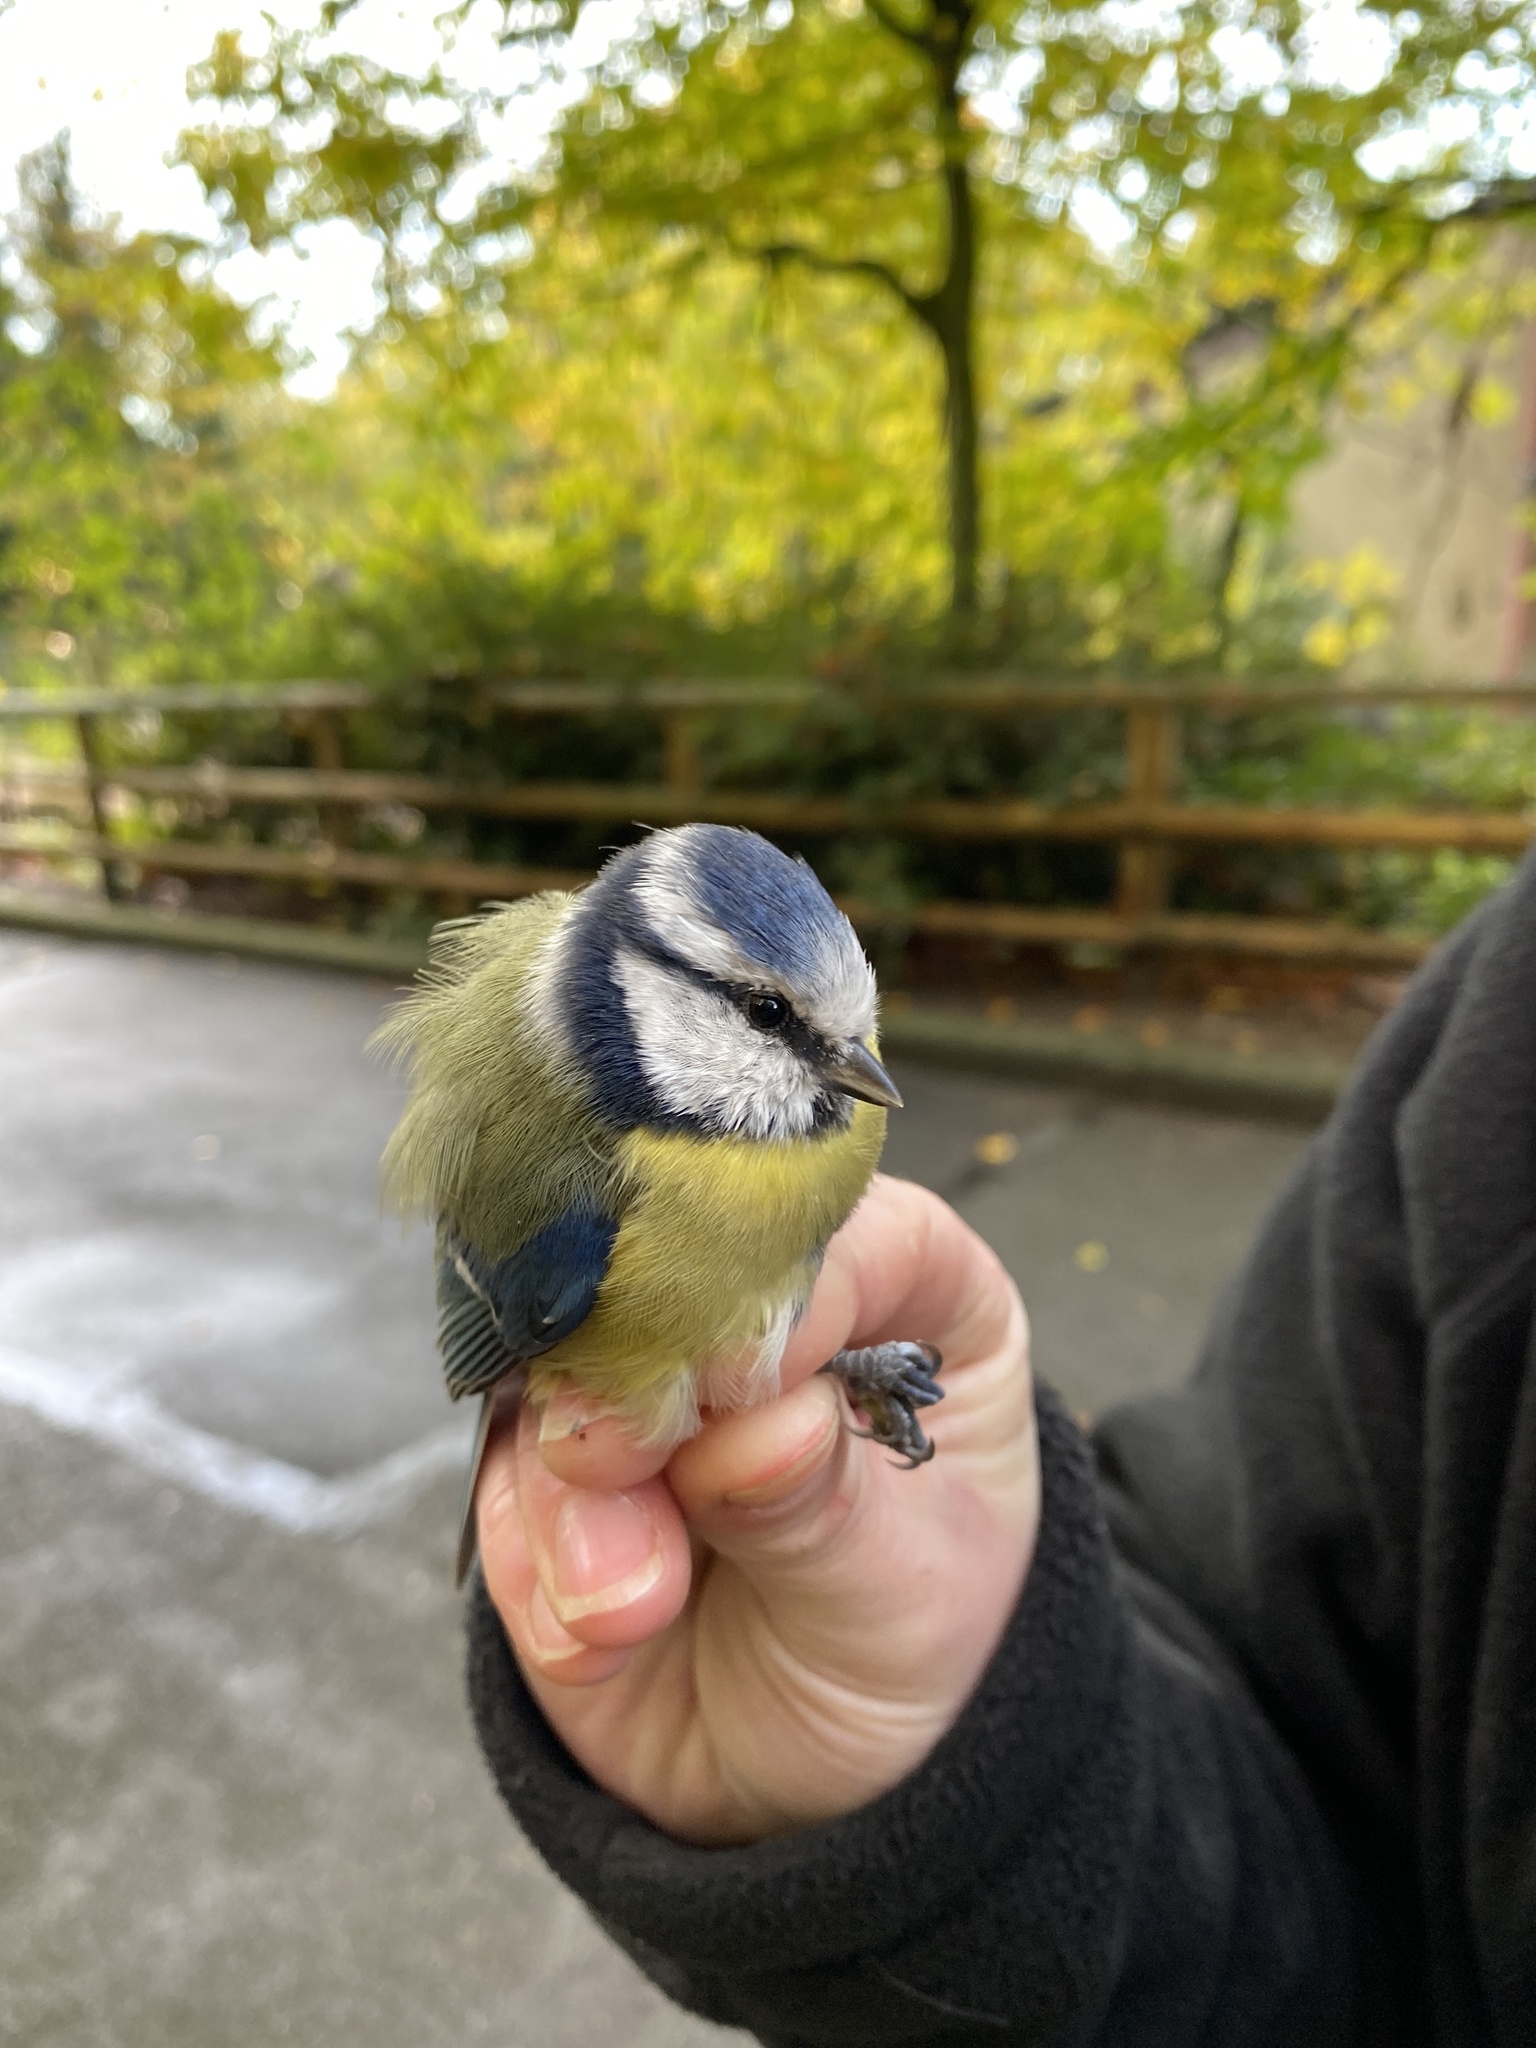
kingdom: Animalia
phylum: Chordata
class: Aves
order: Passeriformes
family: Paridae
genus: Cyanistes
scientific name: Cyanistes caeruleus
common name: Eurasian blue tit
